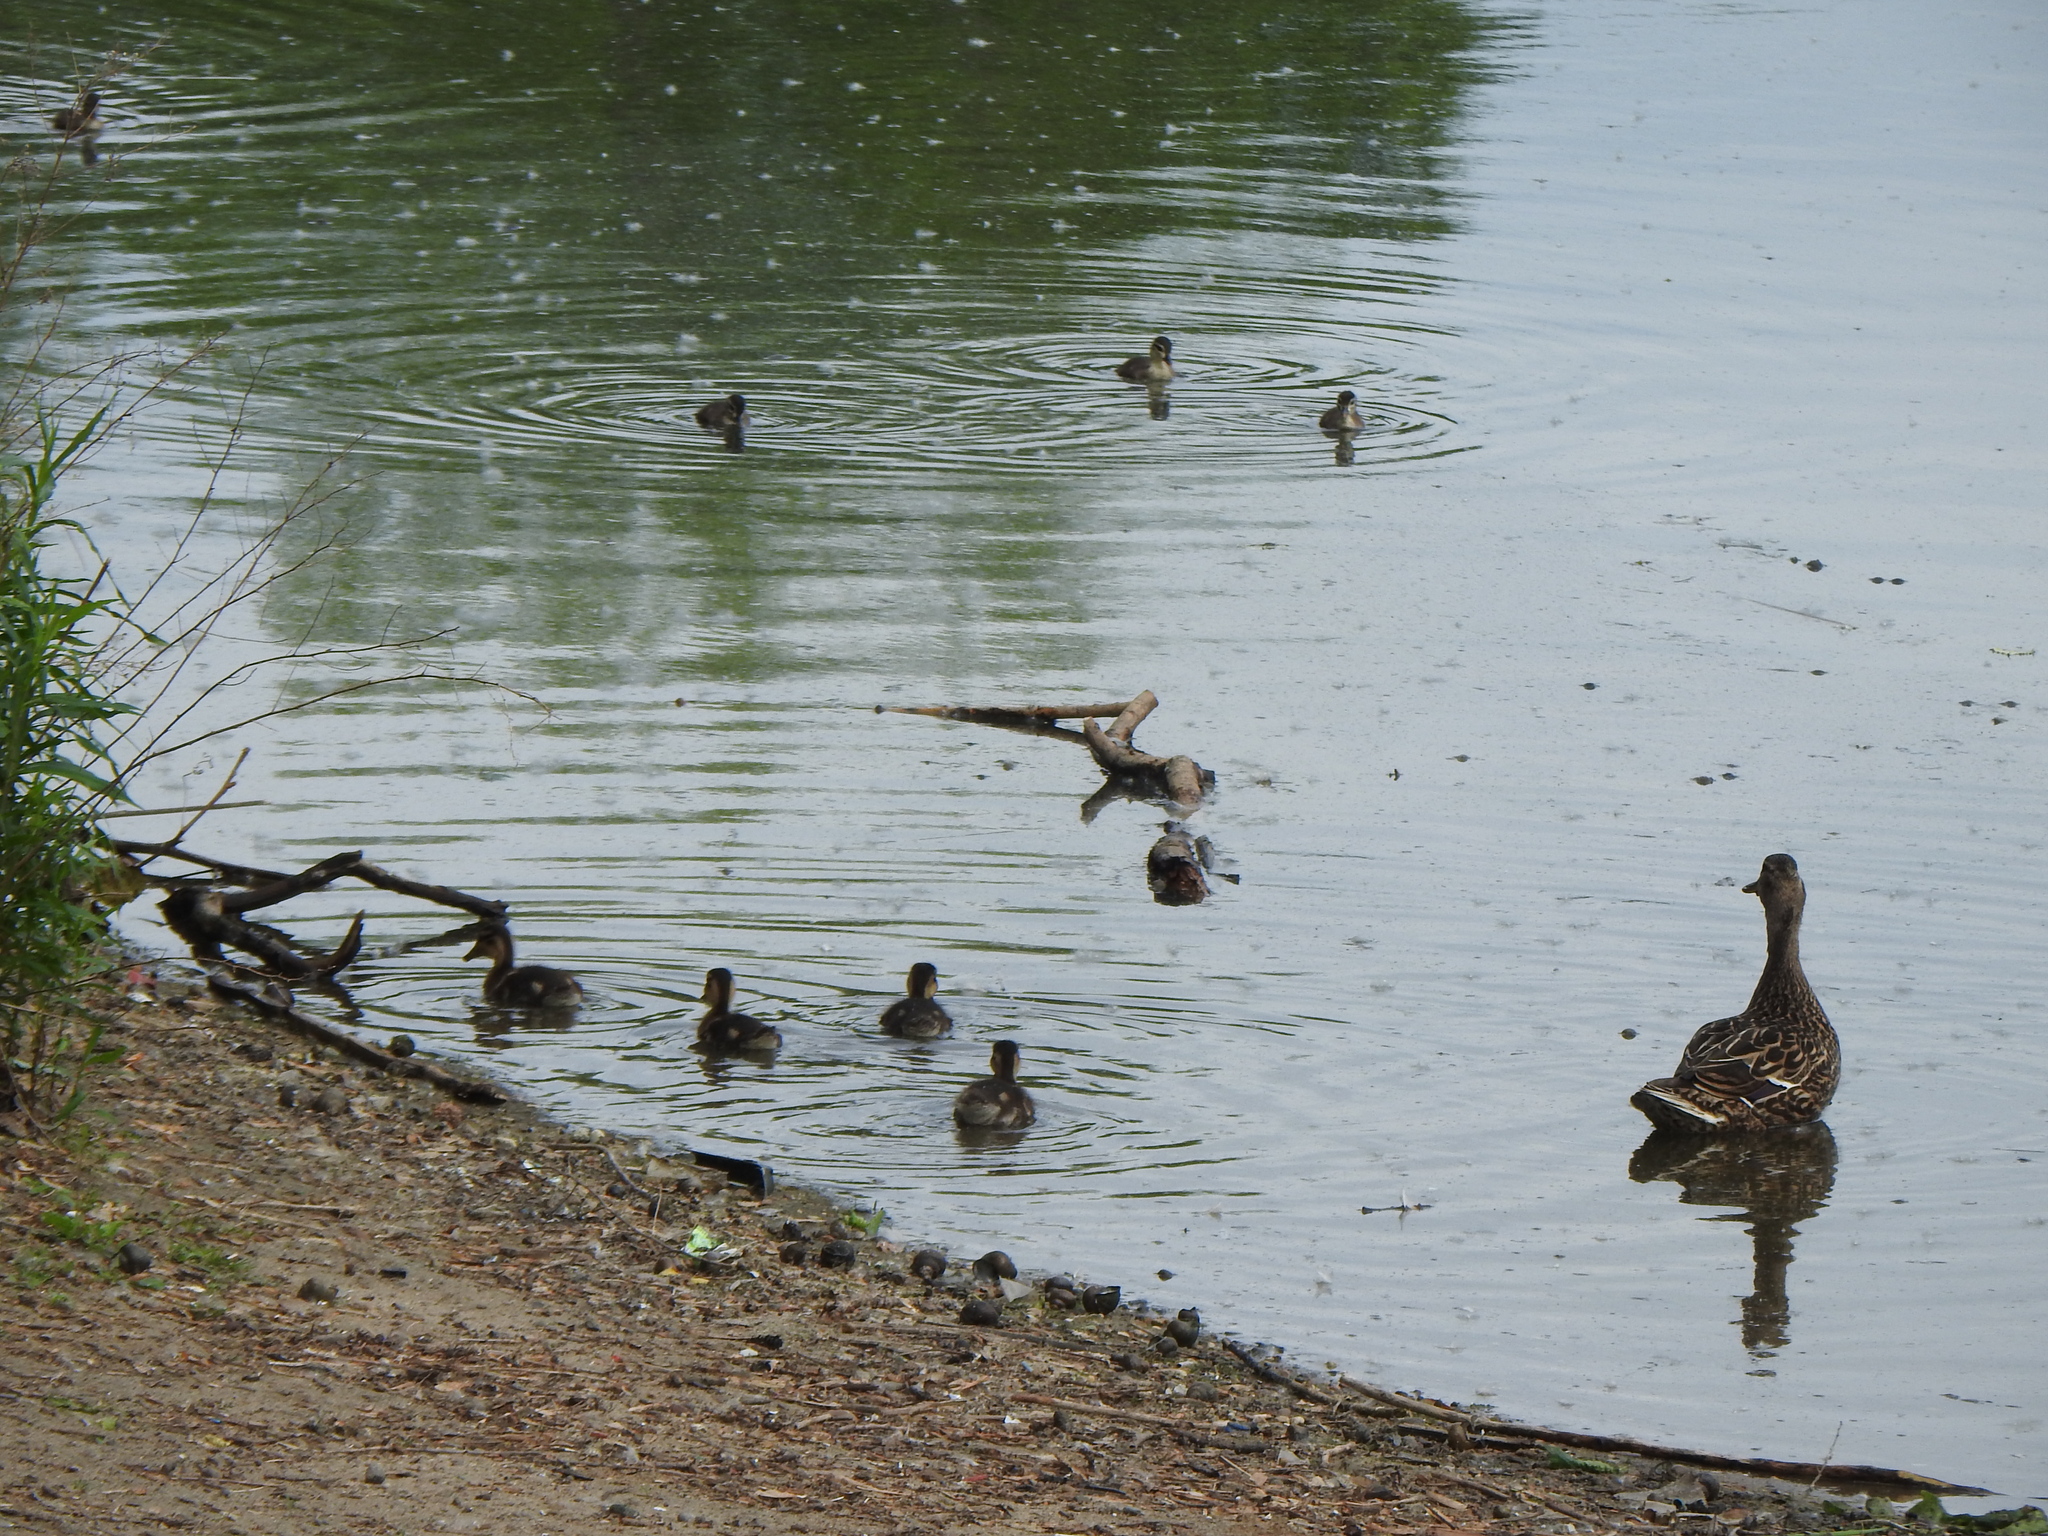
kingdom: Animalia
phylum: Chordata
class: Aves
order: Anseriformes
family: Anatidae
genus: Anas
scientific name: Anas platyrhynchos
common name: Mallard
